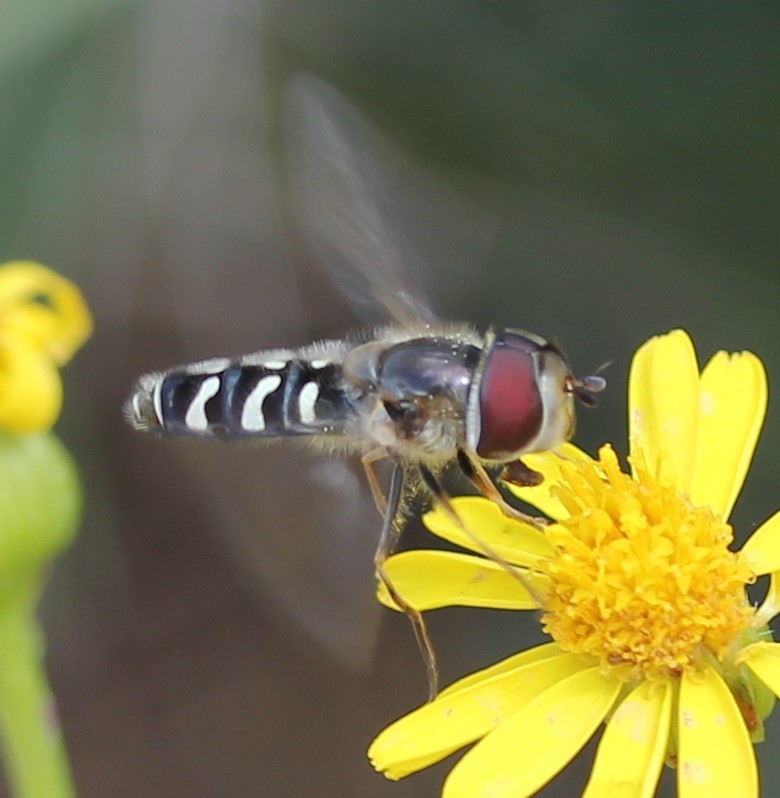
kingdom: Animalia
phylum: Arthropoda
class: Insecta
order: Diptera
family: Syrphidae
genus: Scaeva
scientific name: Scaeva affinis
